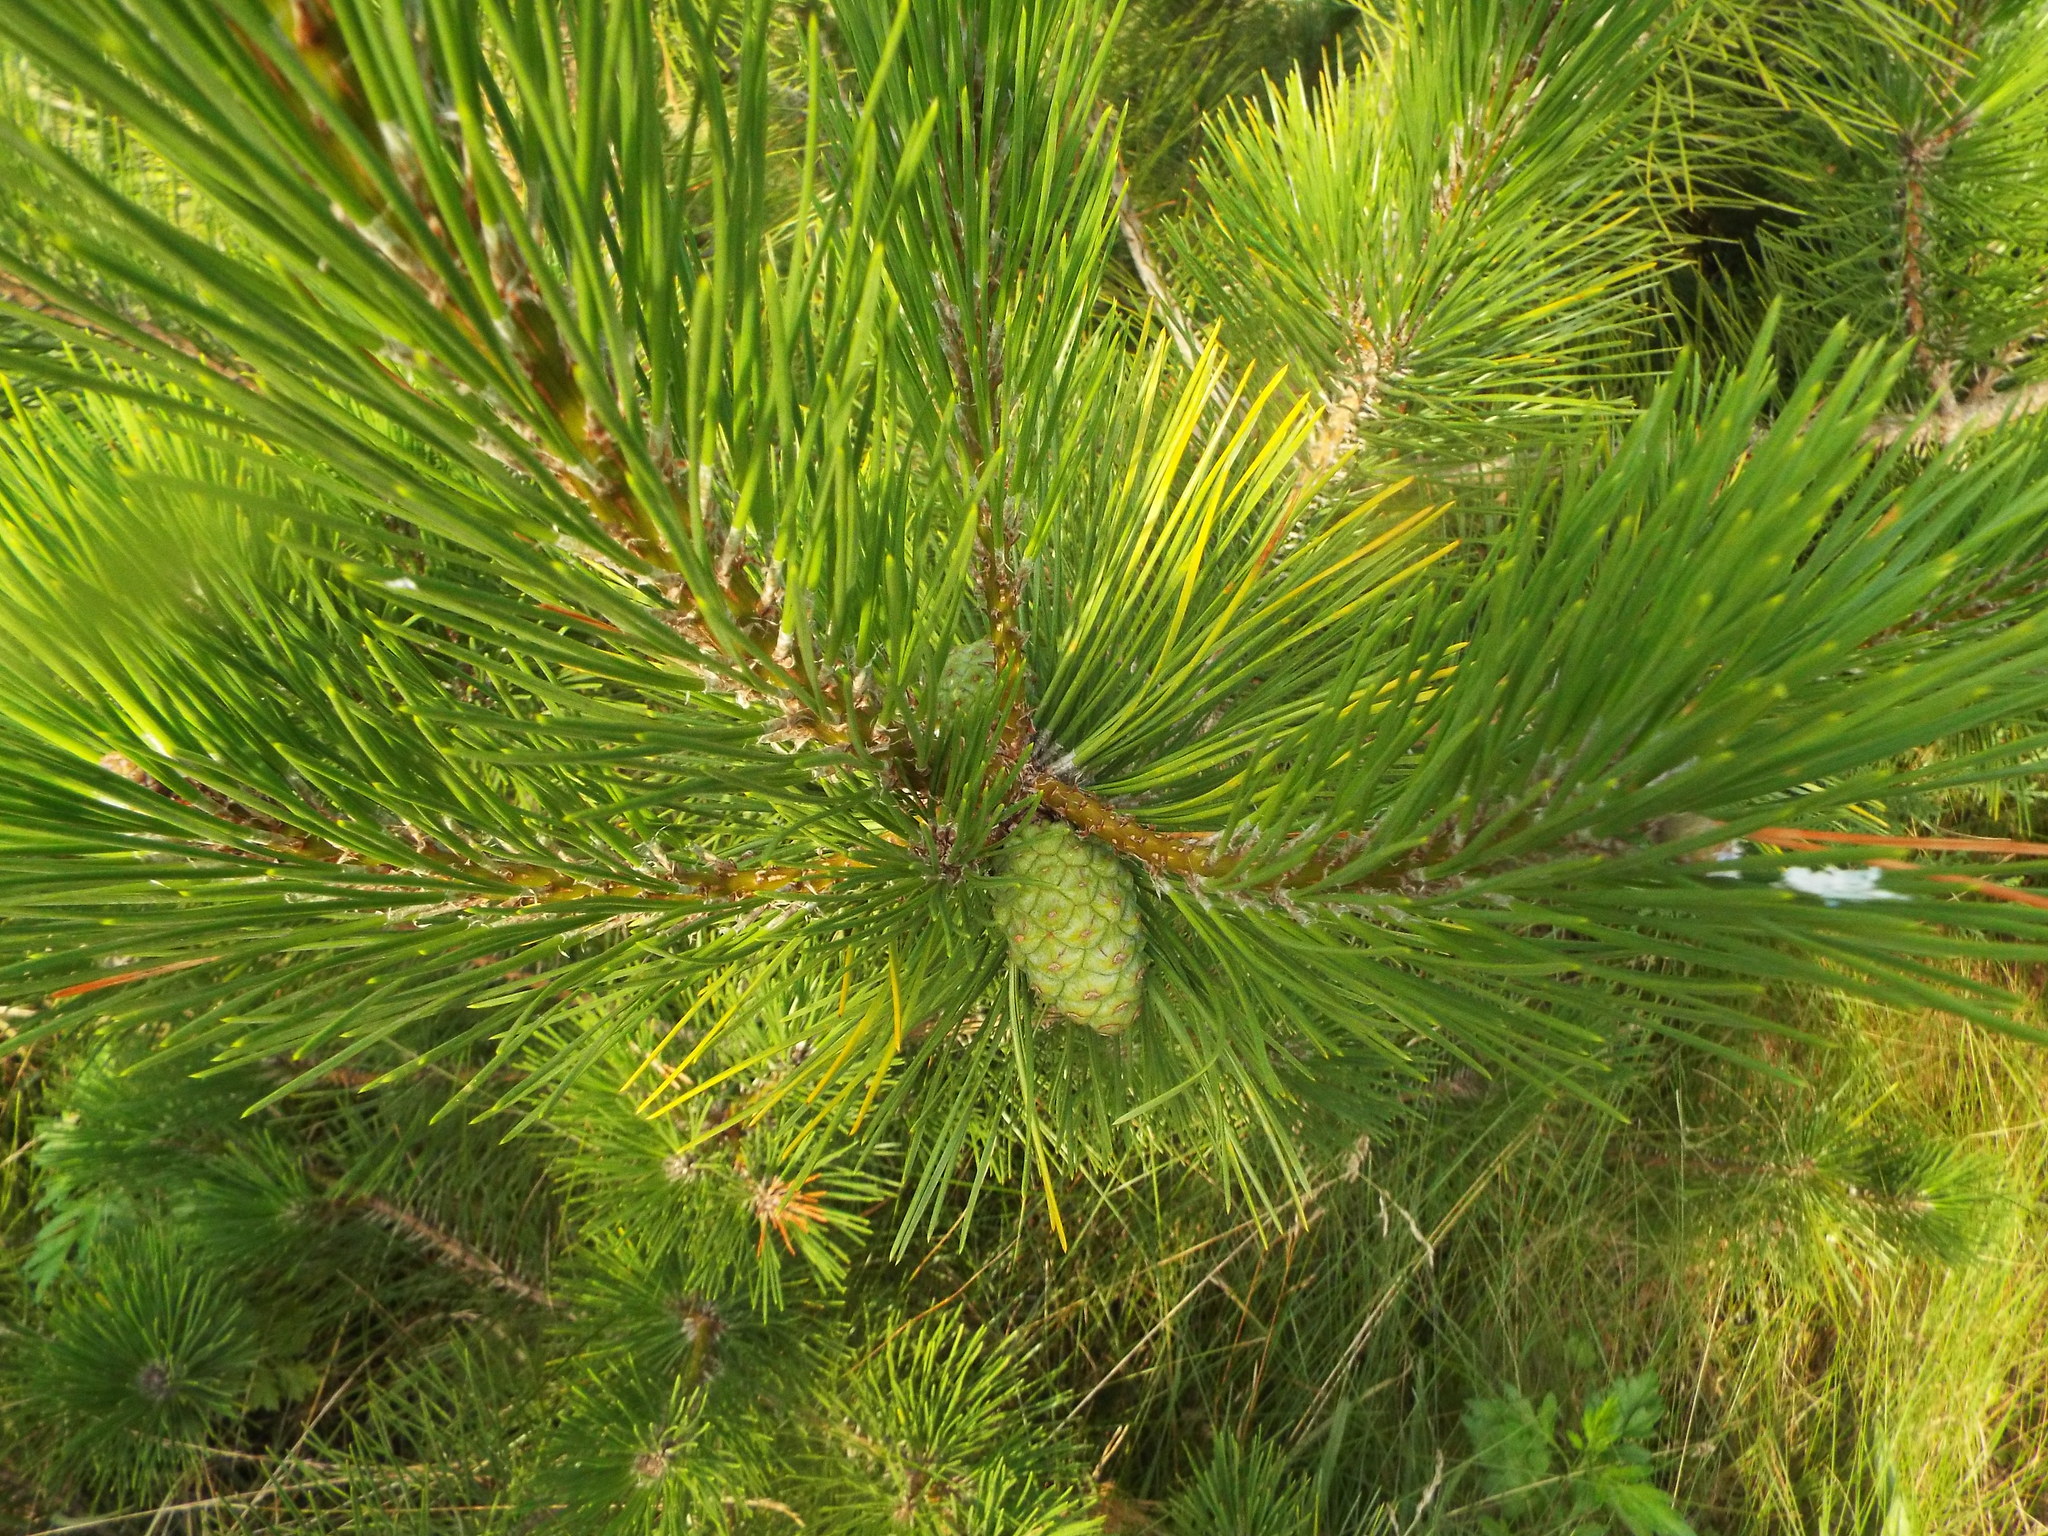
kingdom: Plantae
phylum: Tracheophyta
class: Pinopsida
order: Pinales
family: Pinaceae
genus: Pinus
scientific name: Pinus thunbergii
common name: Japanese black pine
